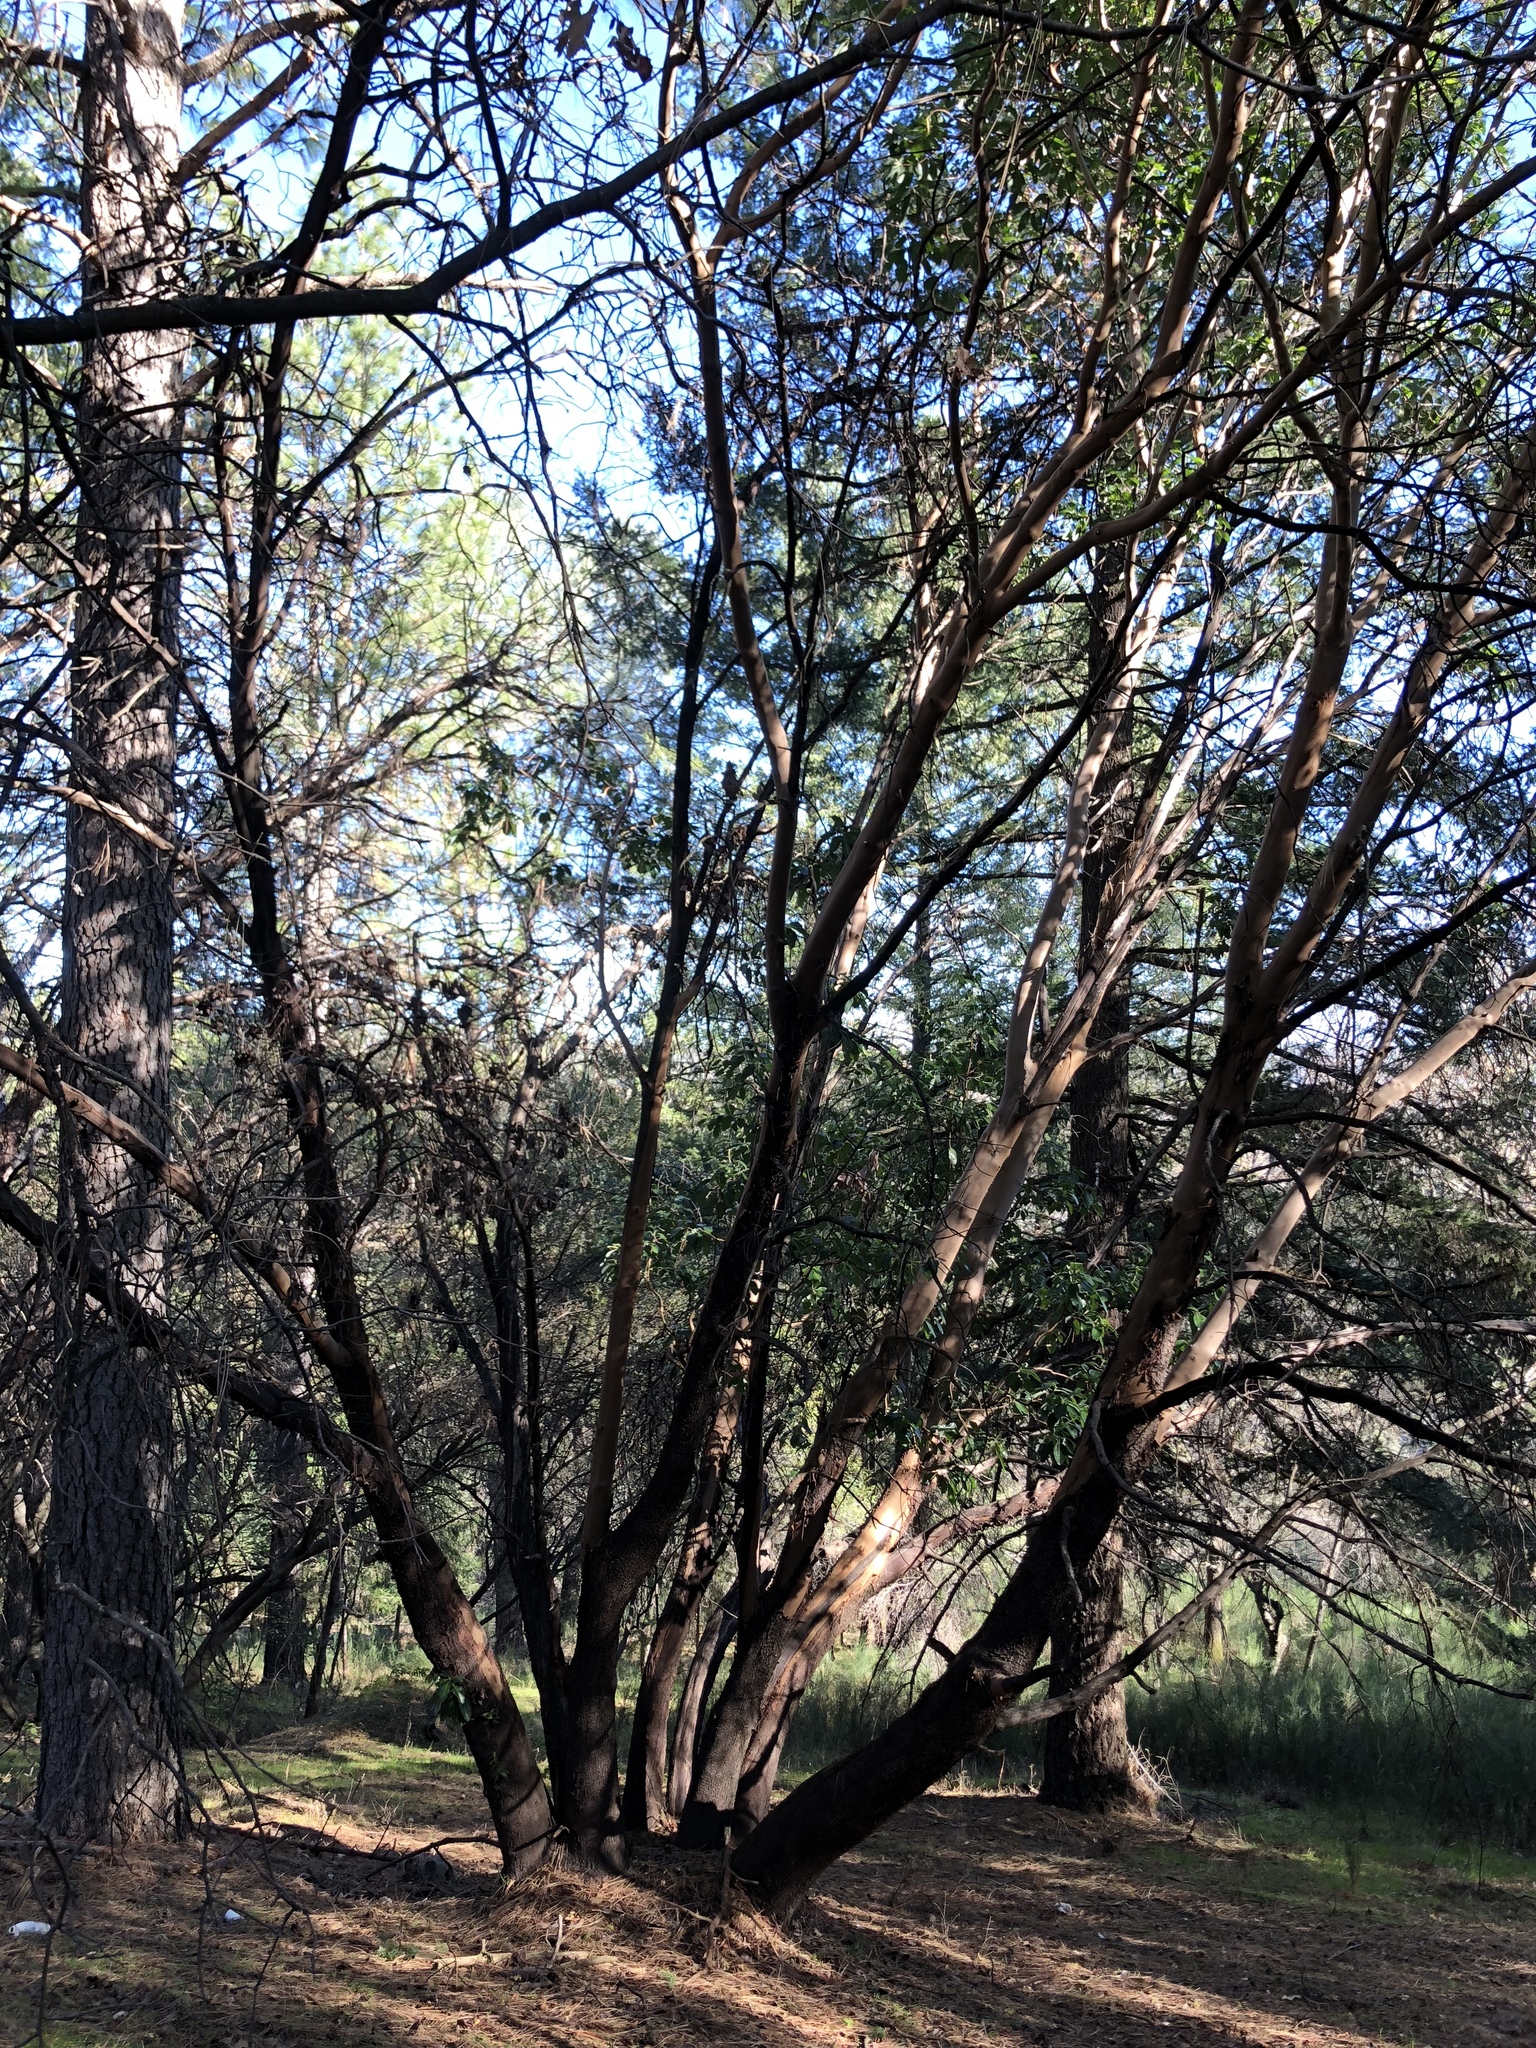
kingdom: Plantae
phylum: Tracheophyta
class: Magnoliopsida
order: Ericales
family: Ericaceae
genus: Arbutus
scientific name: Arbutus menziesii
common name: Pacific madrone
